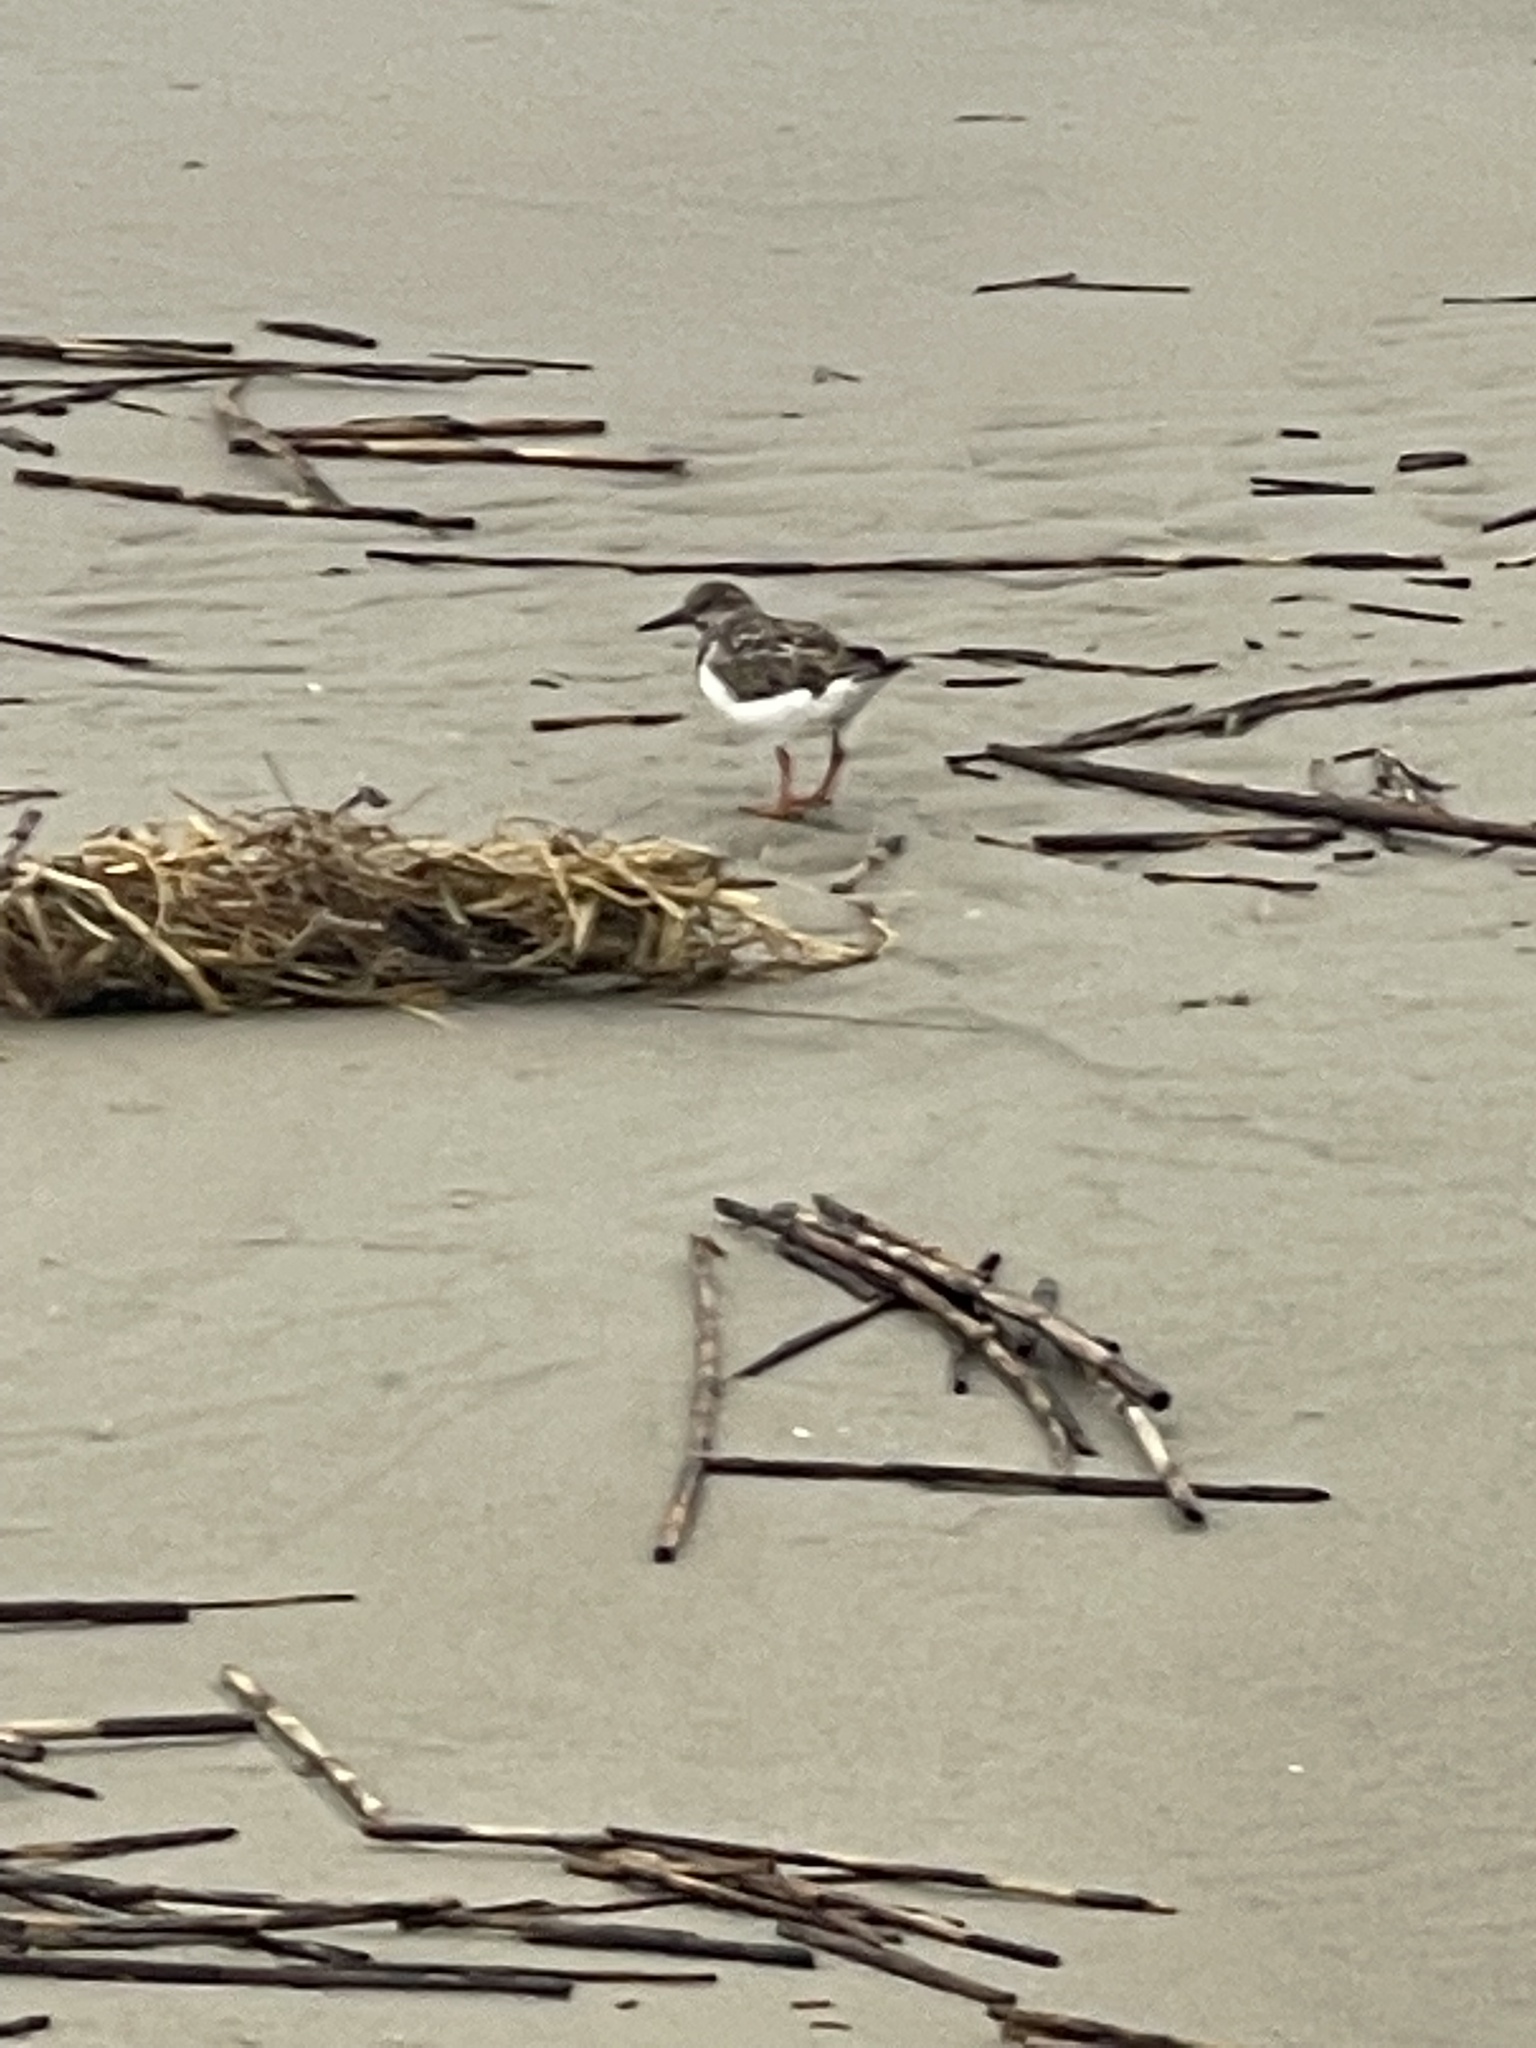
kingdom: Animalia
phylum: Chordata
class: Aves
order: Charadriiformes
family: Scolopacidae
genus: Arenaria
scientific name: Arenaria interpres
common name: Ruddy turnstone
